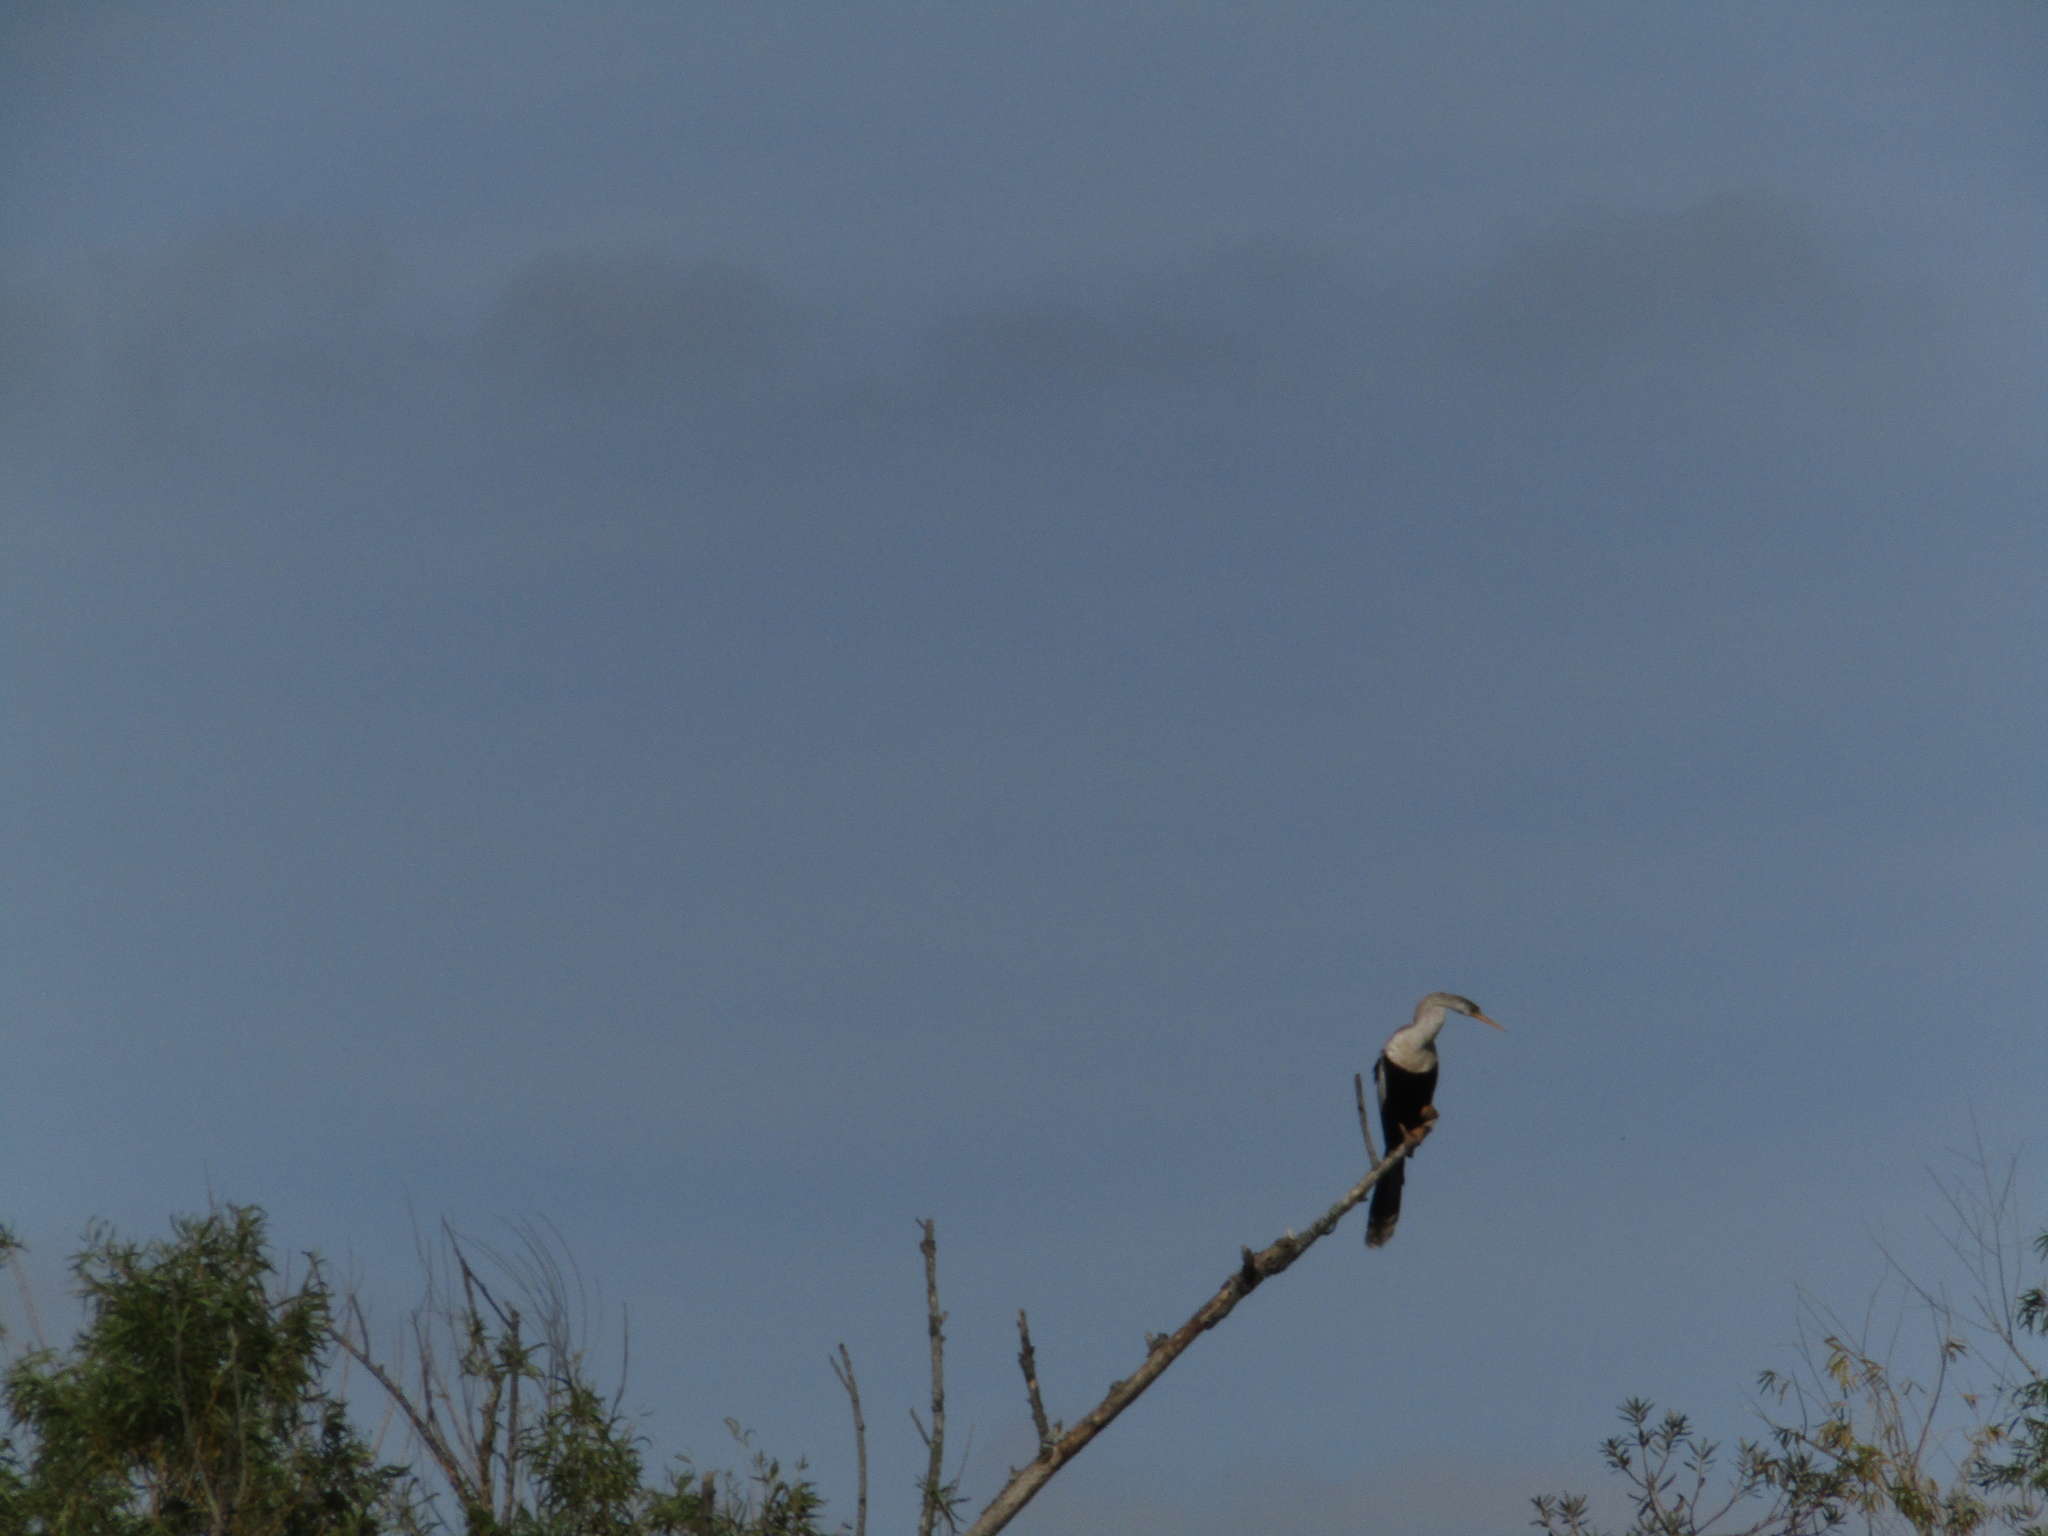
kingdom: Animalia
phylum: Chordata
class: Aves
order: Suliformes
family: Anhingidae
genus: Anhinga
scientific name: Anhinga anhinga
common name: Anhinga
